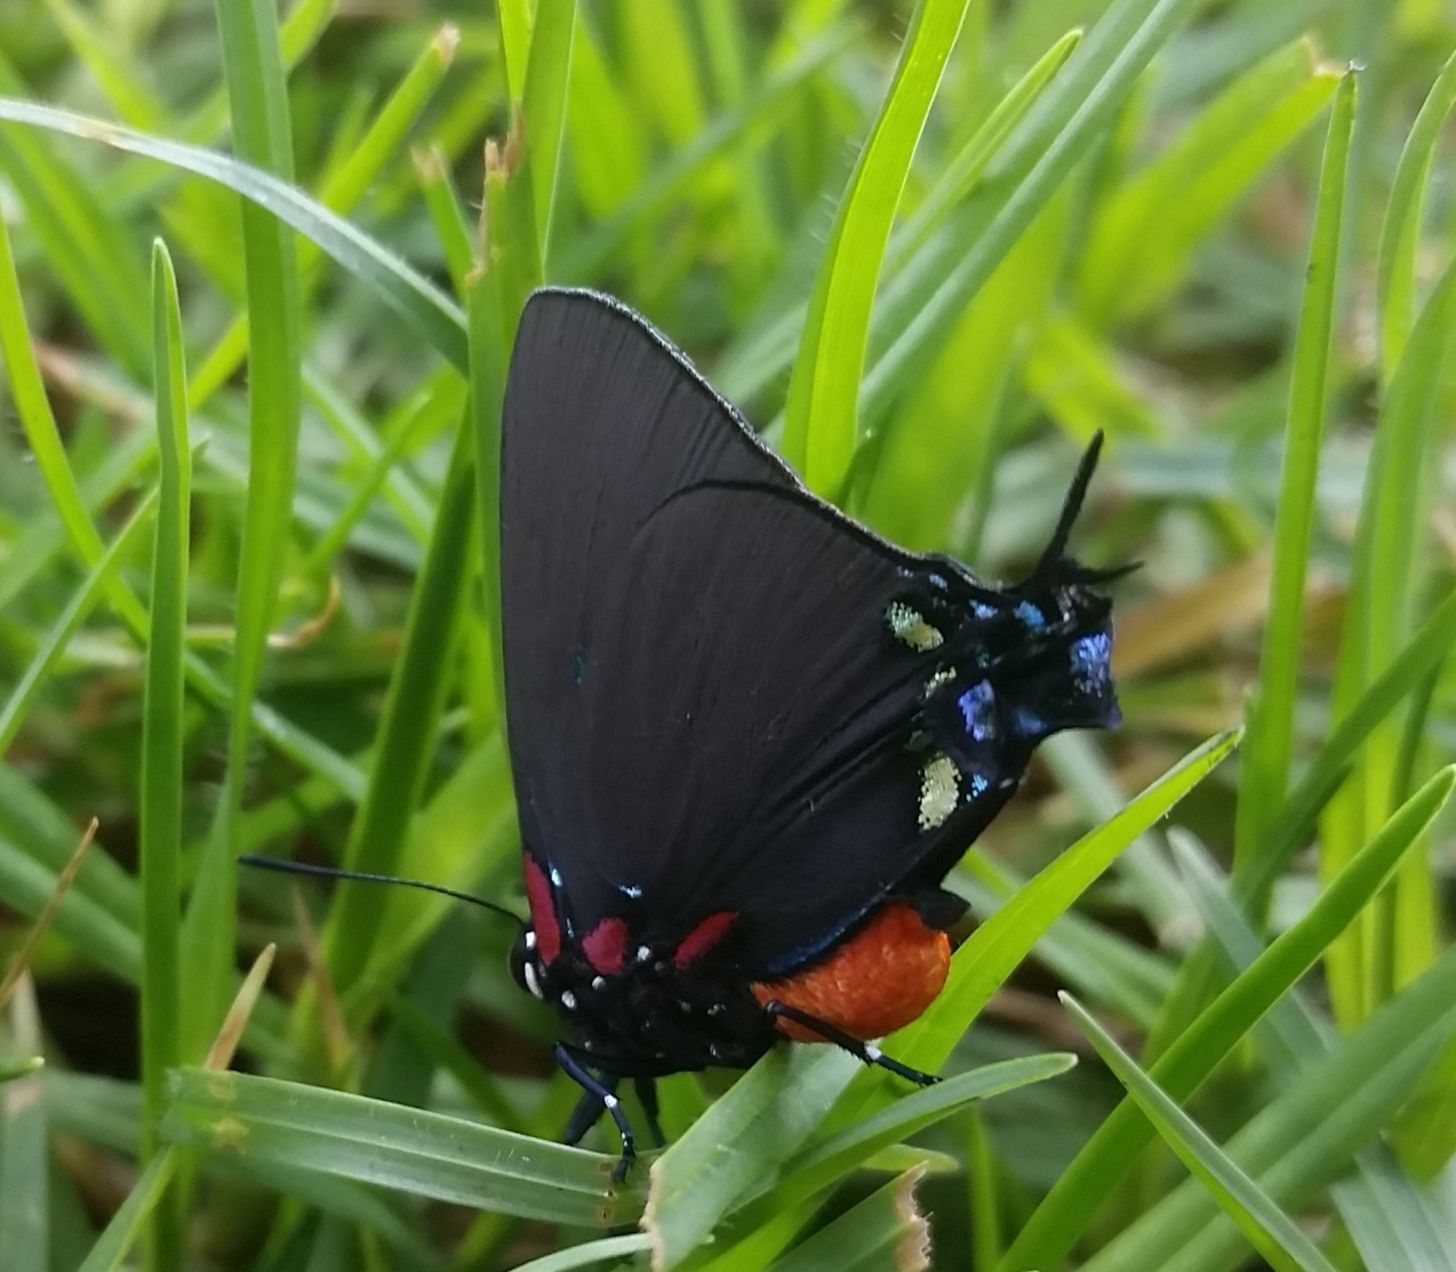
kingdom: Animalia
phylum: Arthropoda
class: Insecta
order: Lepidoptera
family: Lycaenidae
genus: Atlides
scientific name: Atlides halesus
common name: Great purple hairstreak
